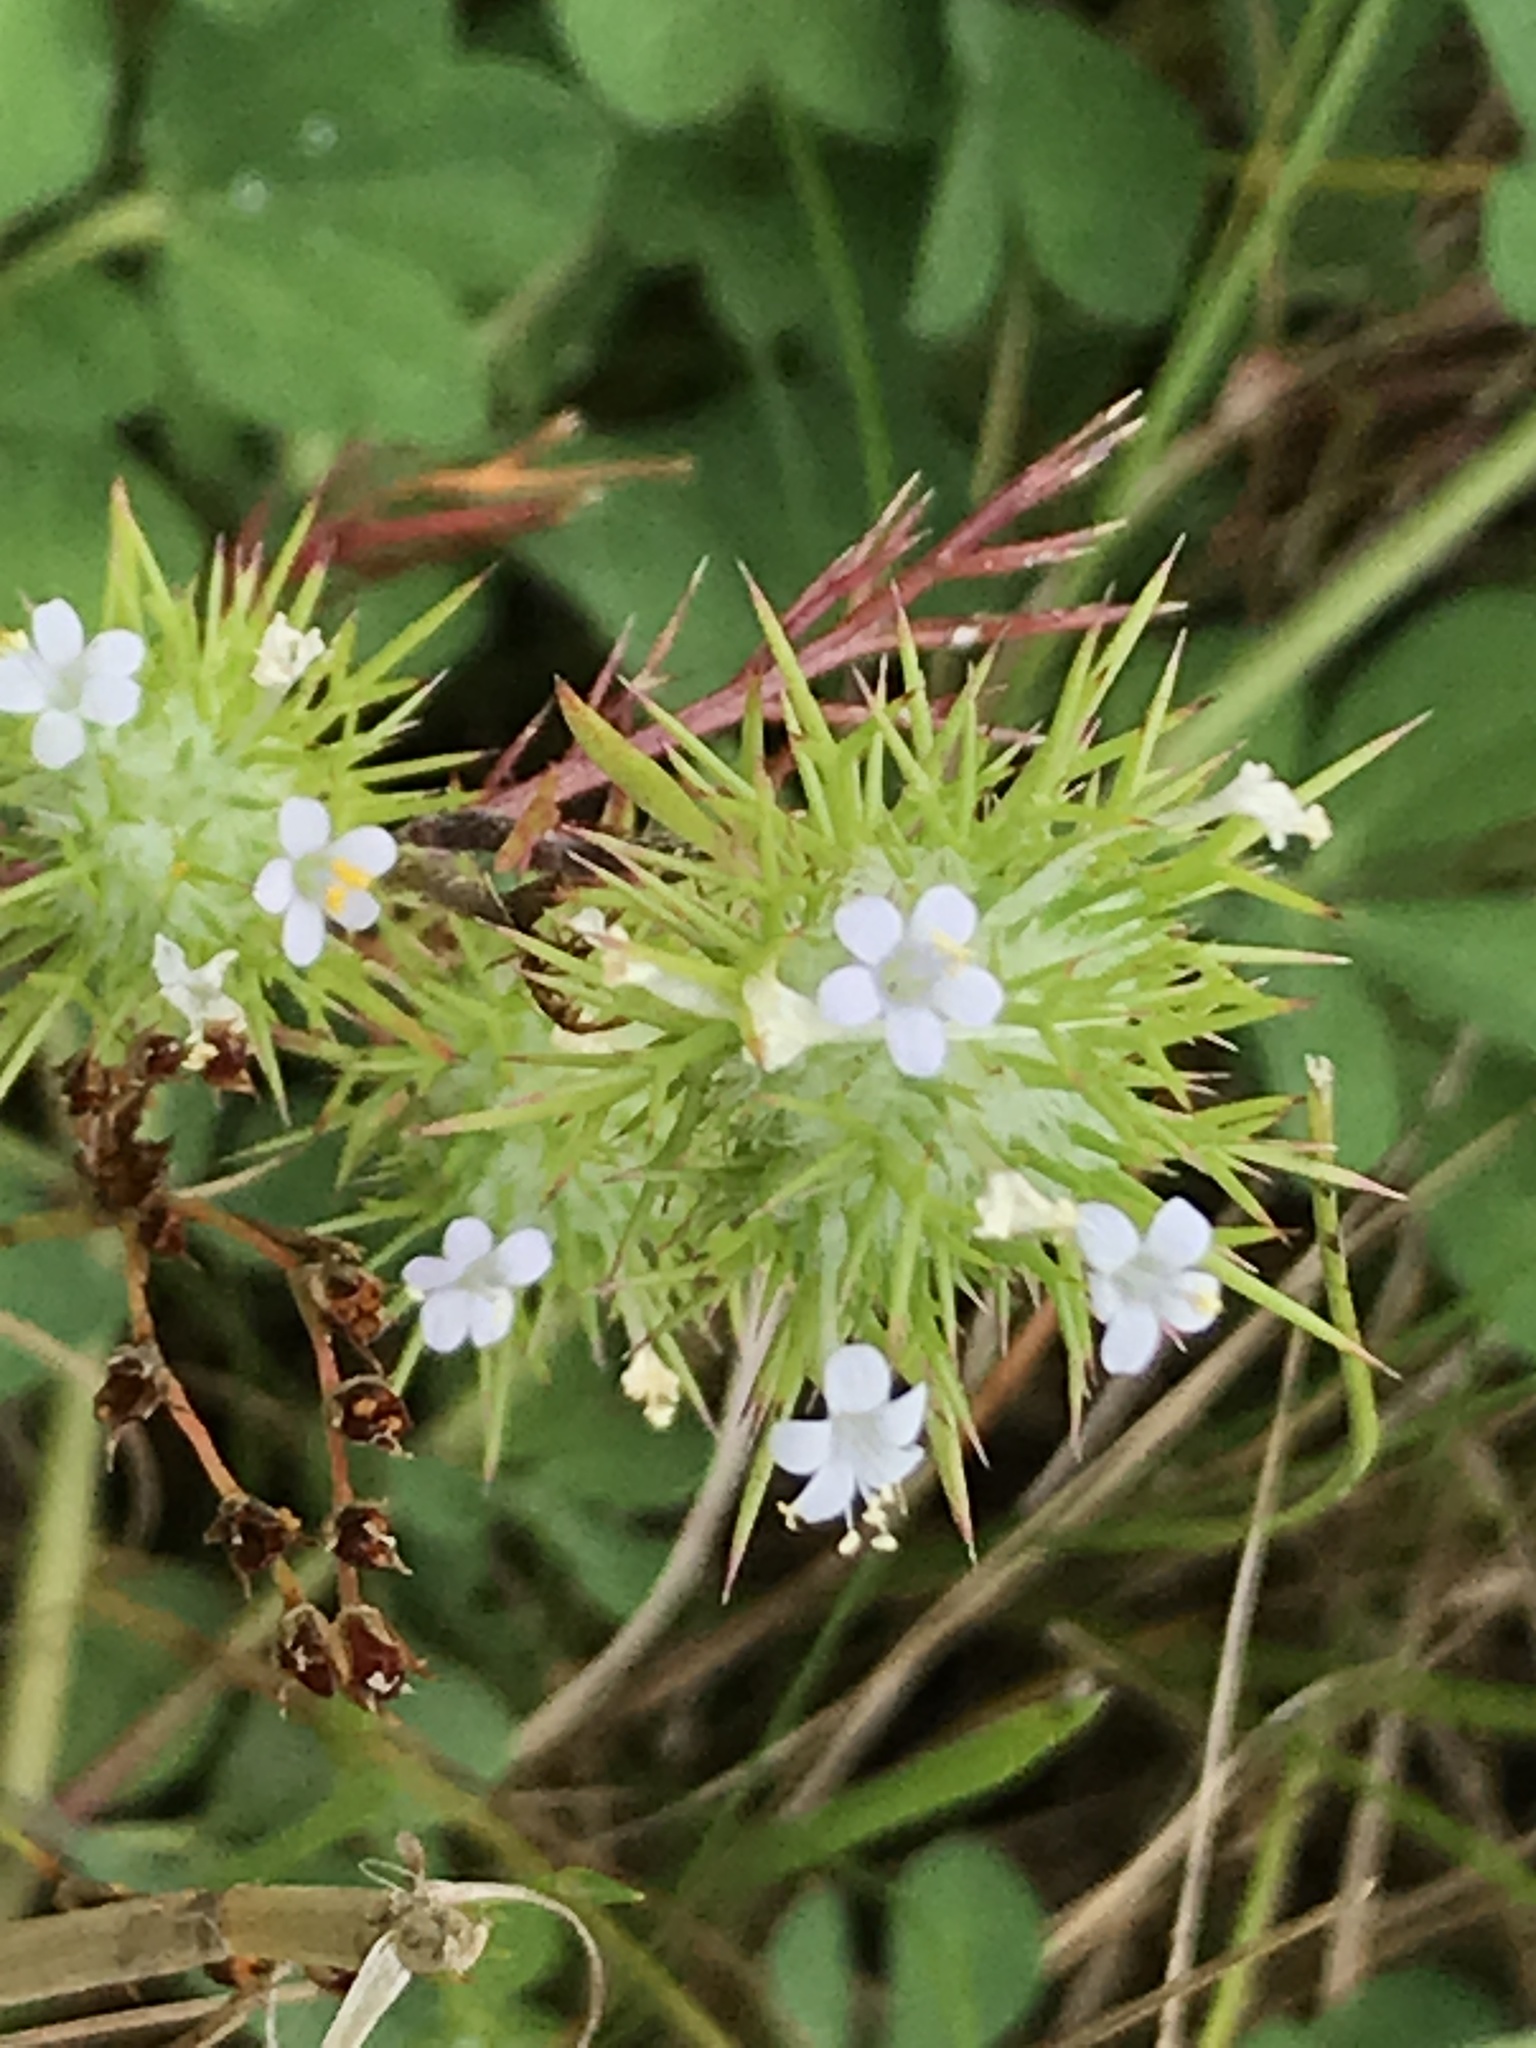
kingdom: Plantae
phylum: Tracheophyta
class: Magnoliopsida
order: Ericales
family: Polemoniaceae
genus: Navarretia
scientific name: Navarretia intertexta
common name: Needle-leaved navarretia
